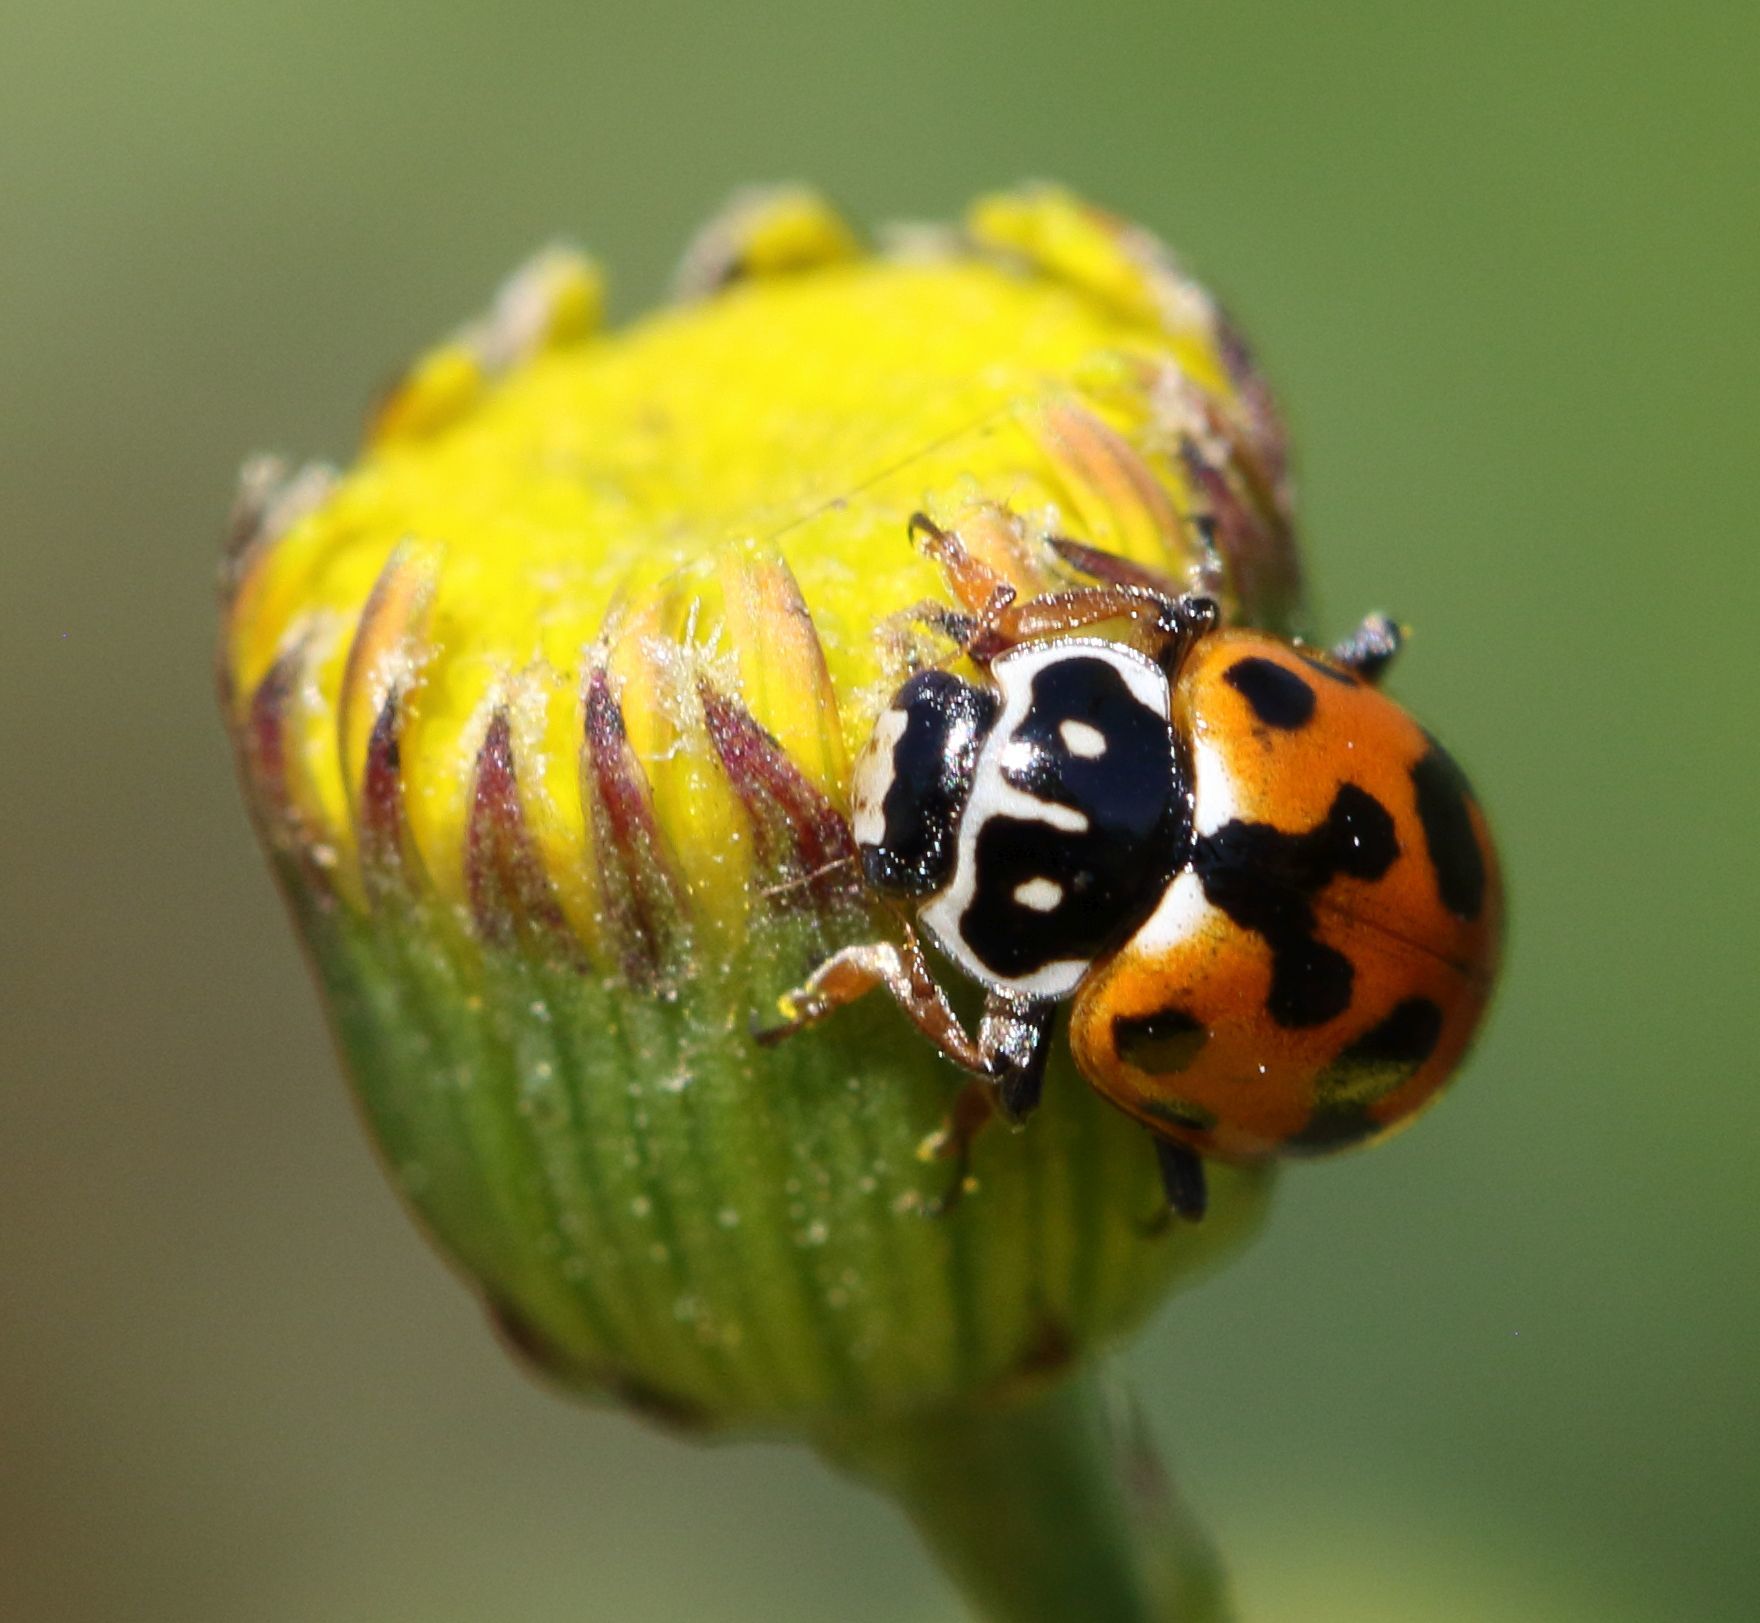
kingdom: Animalia
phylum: Arthropoda
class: Insecta
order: Coleoptera
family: Coccinellidae
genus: Hippodamia
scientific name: Hippodamia variegata
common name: Ladybird beetle
